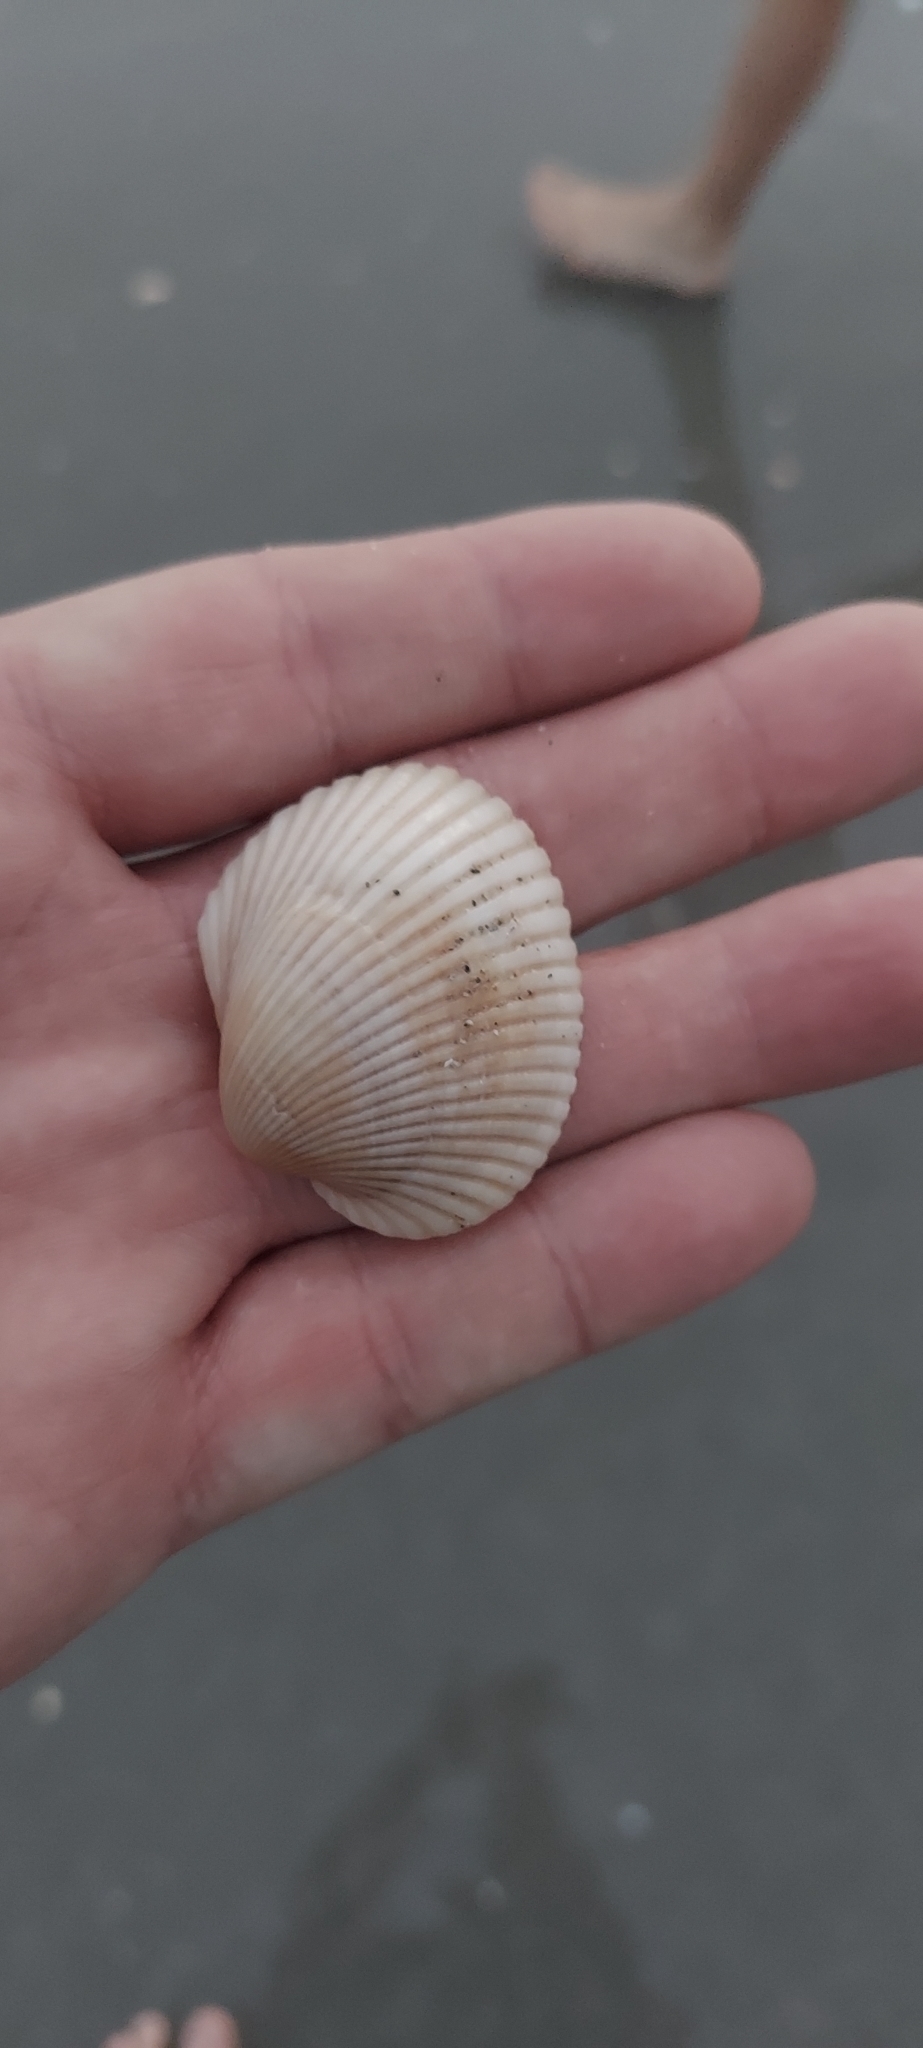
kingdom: Animalia
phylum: Mollusca
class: Bivalvia
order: Arcida
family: Arcidae
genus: Lunarca
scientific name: Lunarca ovalis
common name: Blood ark
